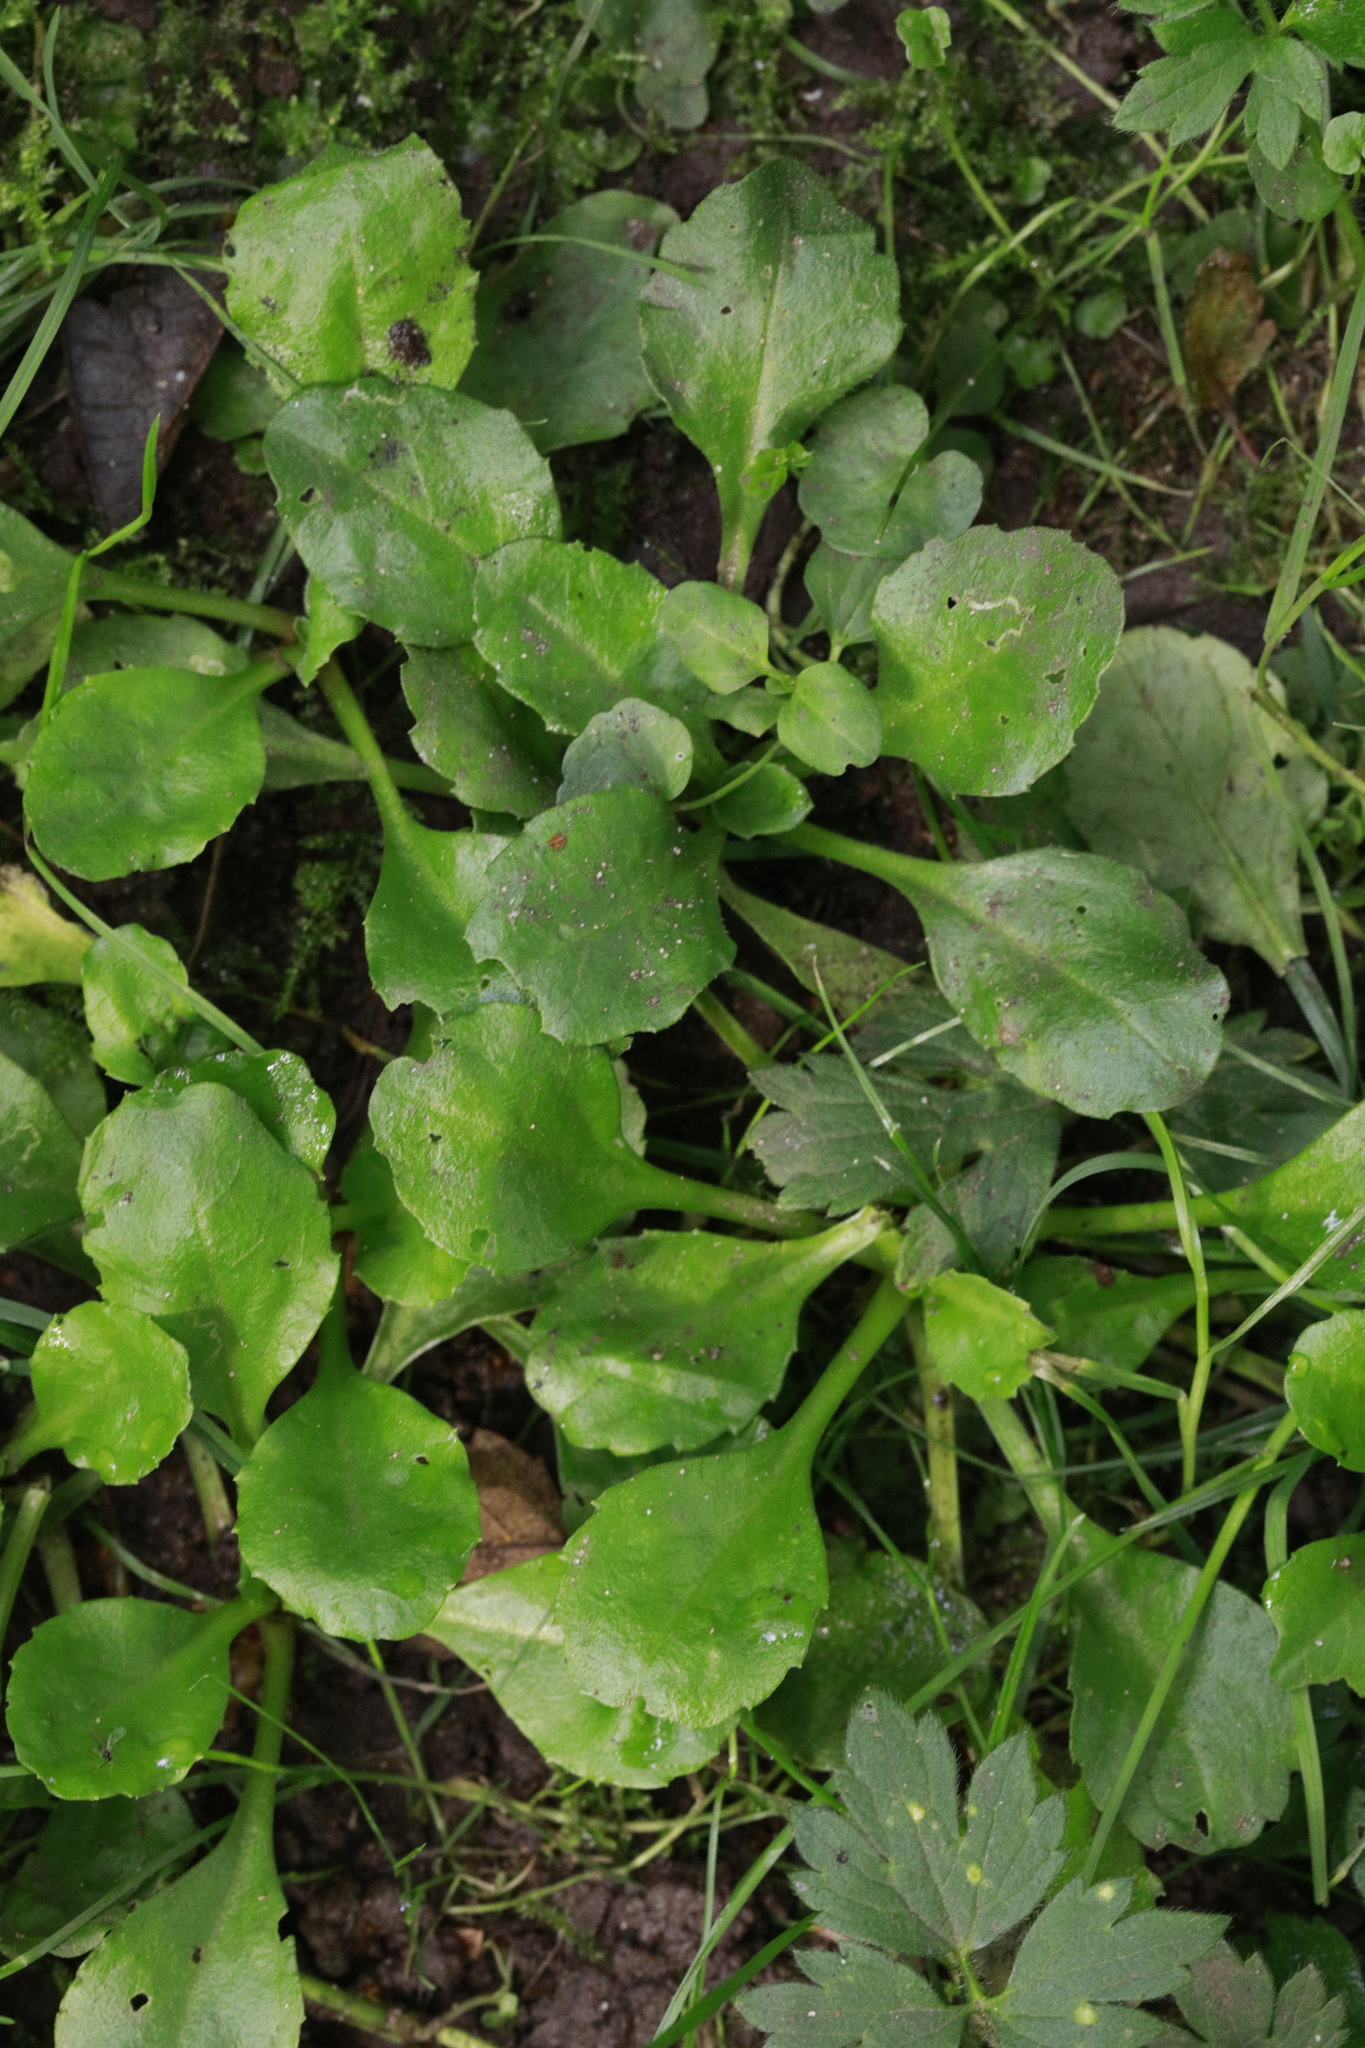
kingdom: Plantae
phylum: Tracheophyta
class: Magnoliopsida
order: Asterales
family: Asteraceae
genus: Bellis
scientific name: Bellis perennis
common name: Lawndaisy
